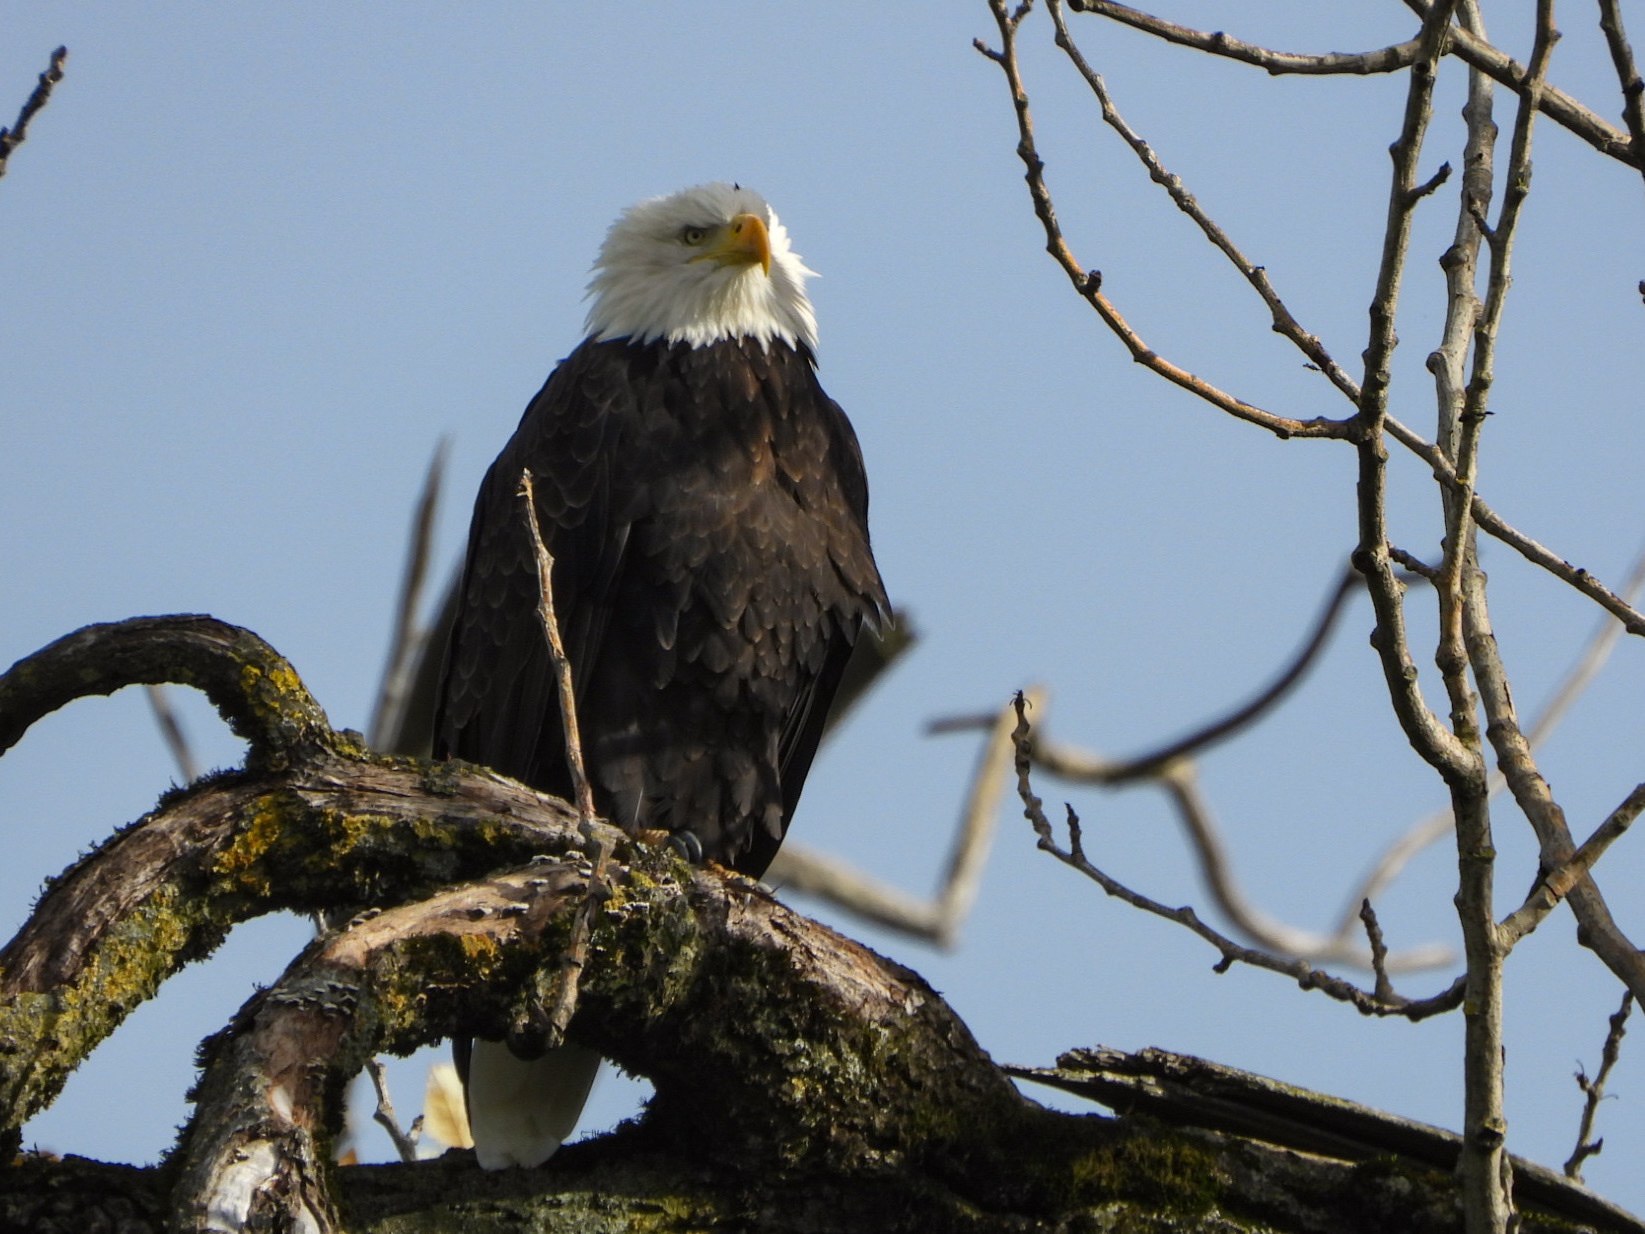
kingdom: Animalia
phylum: Chordata
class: Aves
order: Accipitriformes
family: Accipitridae
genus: Haliaeetus
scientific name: Haliaeetus leucocephalus
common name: Bald eagle
